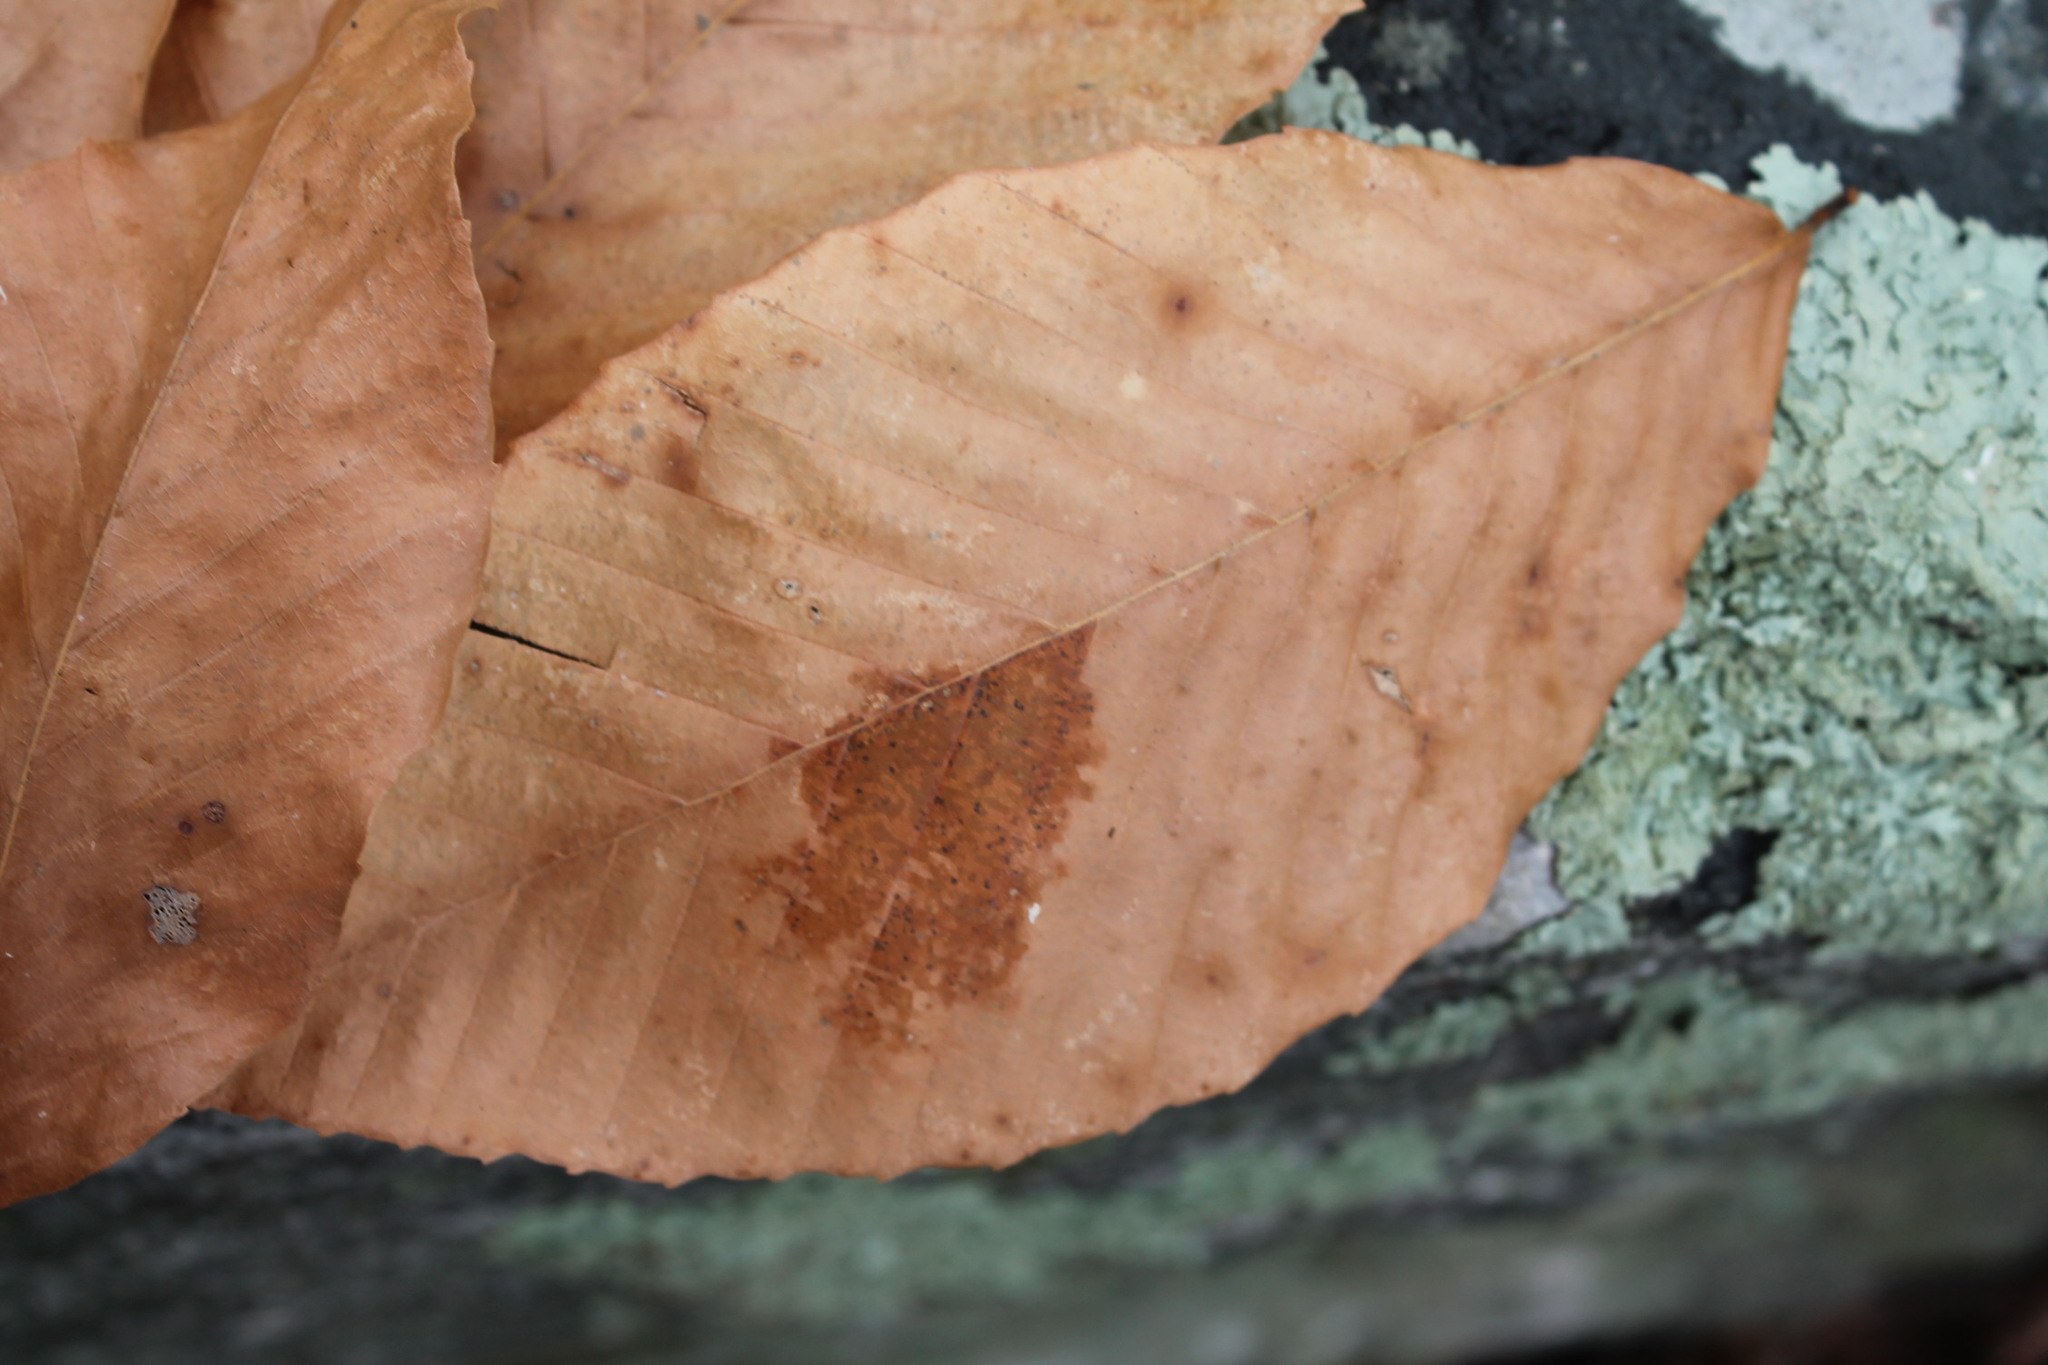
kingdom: Plantae
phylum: Tracheophyta
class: Magnoliopsida
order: Fagales
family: Fagaceae
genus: Fagus
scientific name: Fagus grandifolia
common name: American beech
